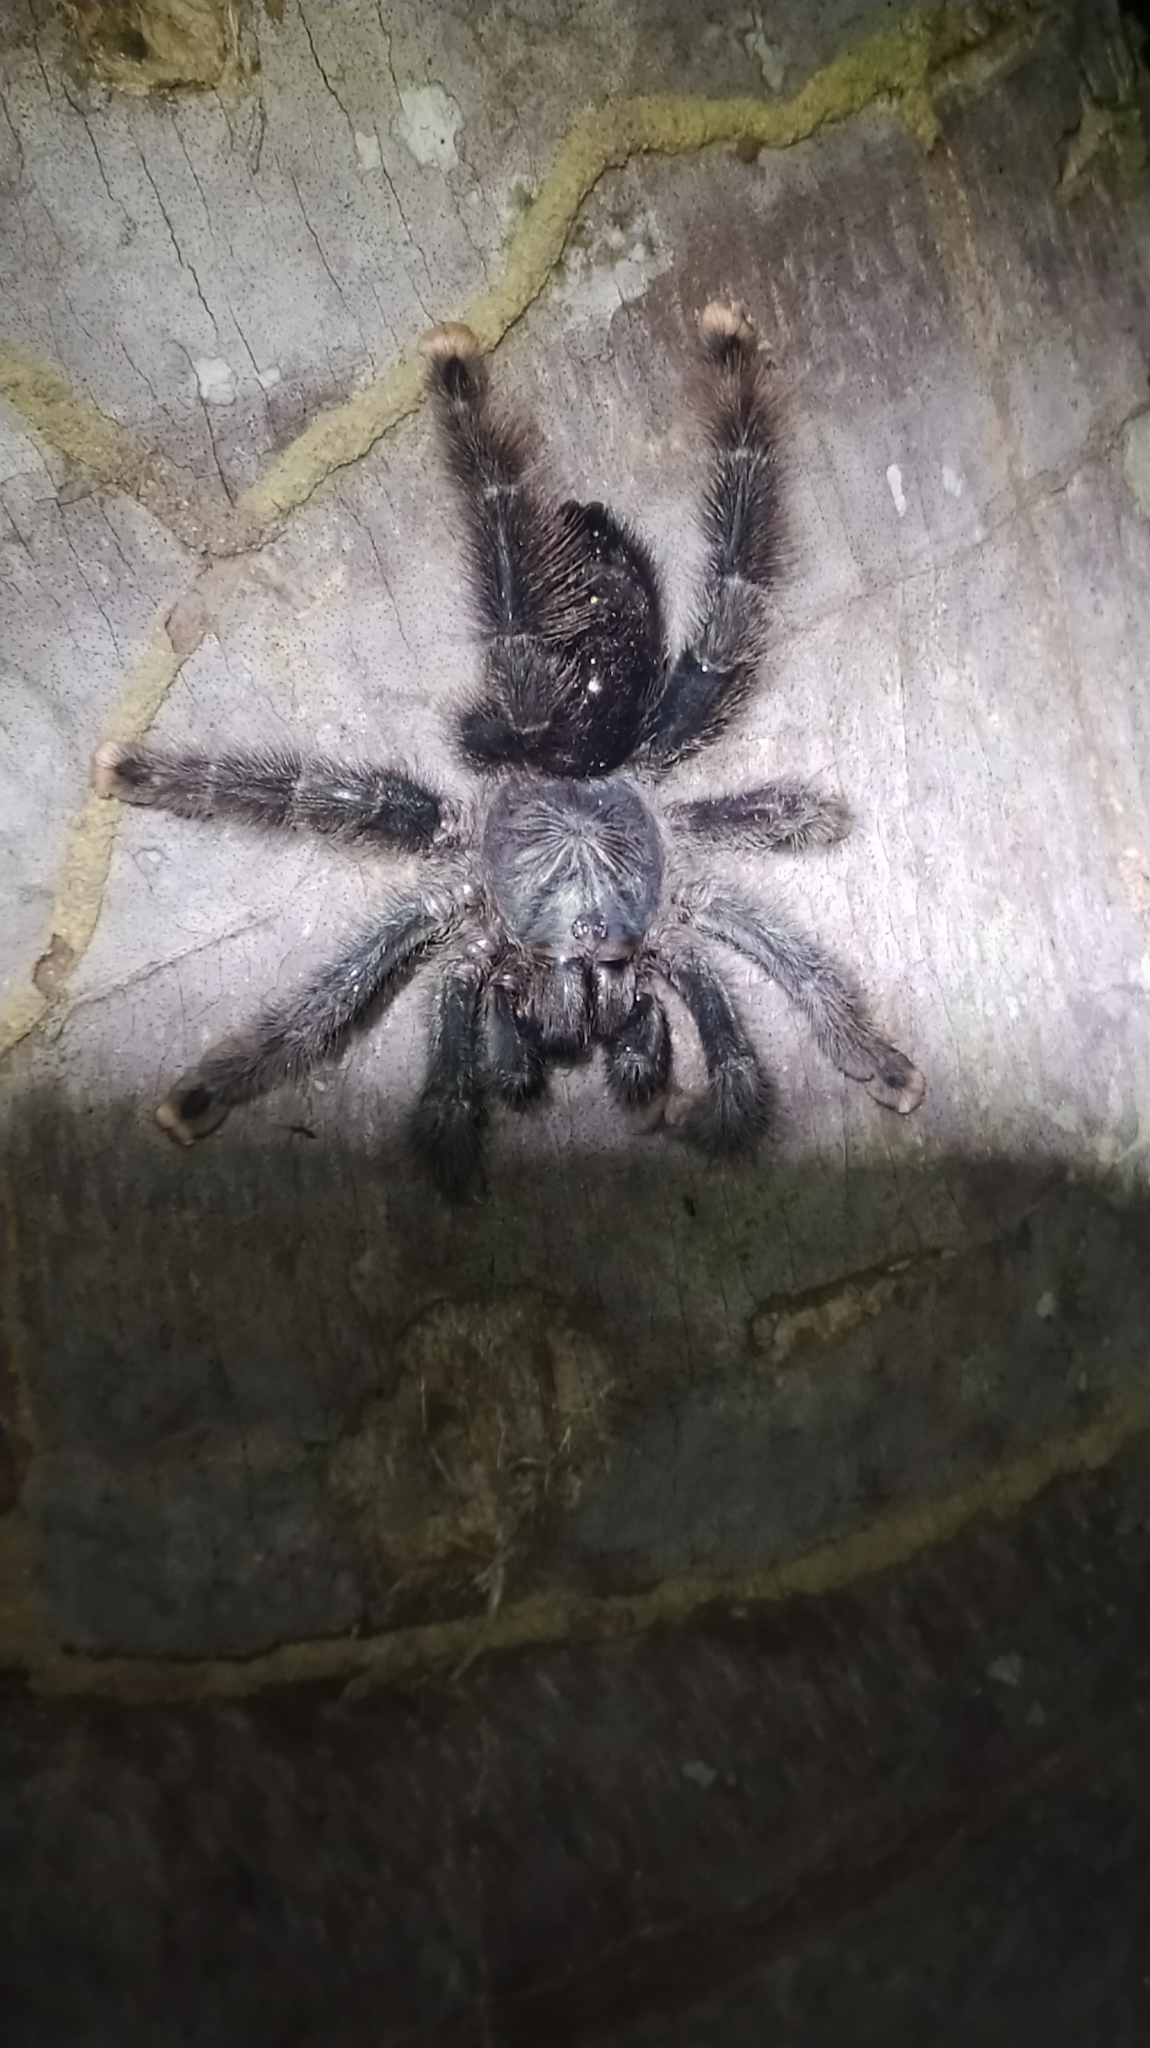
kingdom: Animalia
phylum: Arthropoda
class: Arachnida
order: Araneae
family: Theraphosidae
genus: Avicularia
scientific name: Avicularia avicularia
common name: Tarantula spiders
